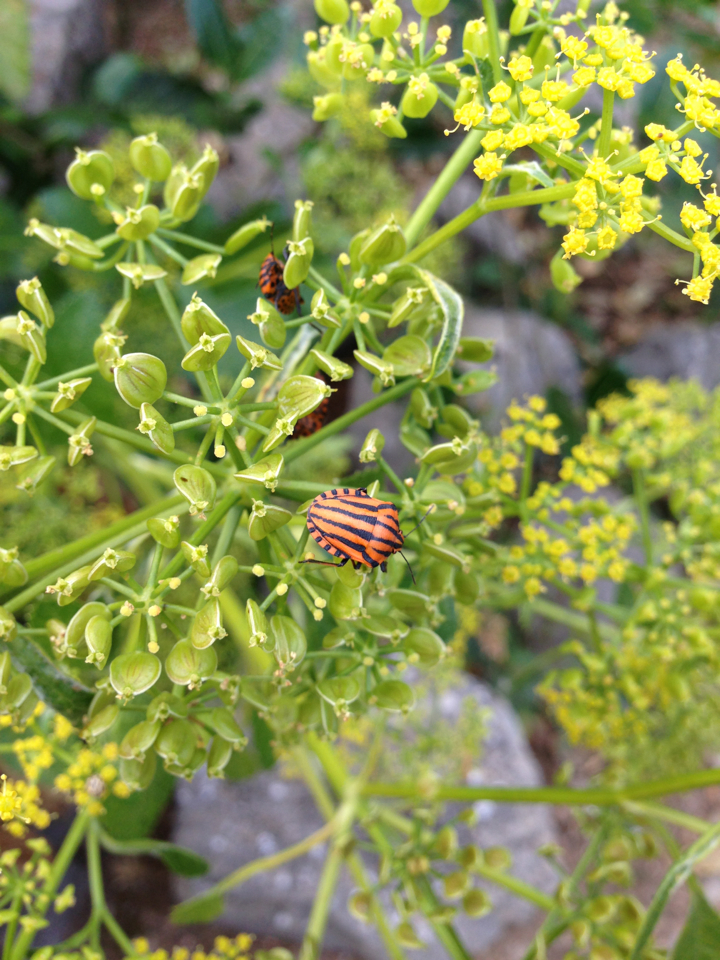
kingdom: Animalia
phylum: Arthropoda
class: Insecta
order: Hemiptera
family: Pentatomidae
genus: Graphosoma
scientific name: Graphosoma italicum
